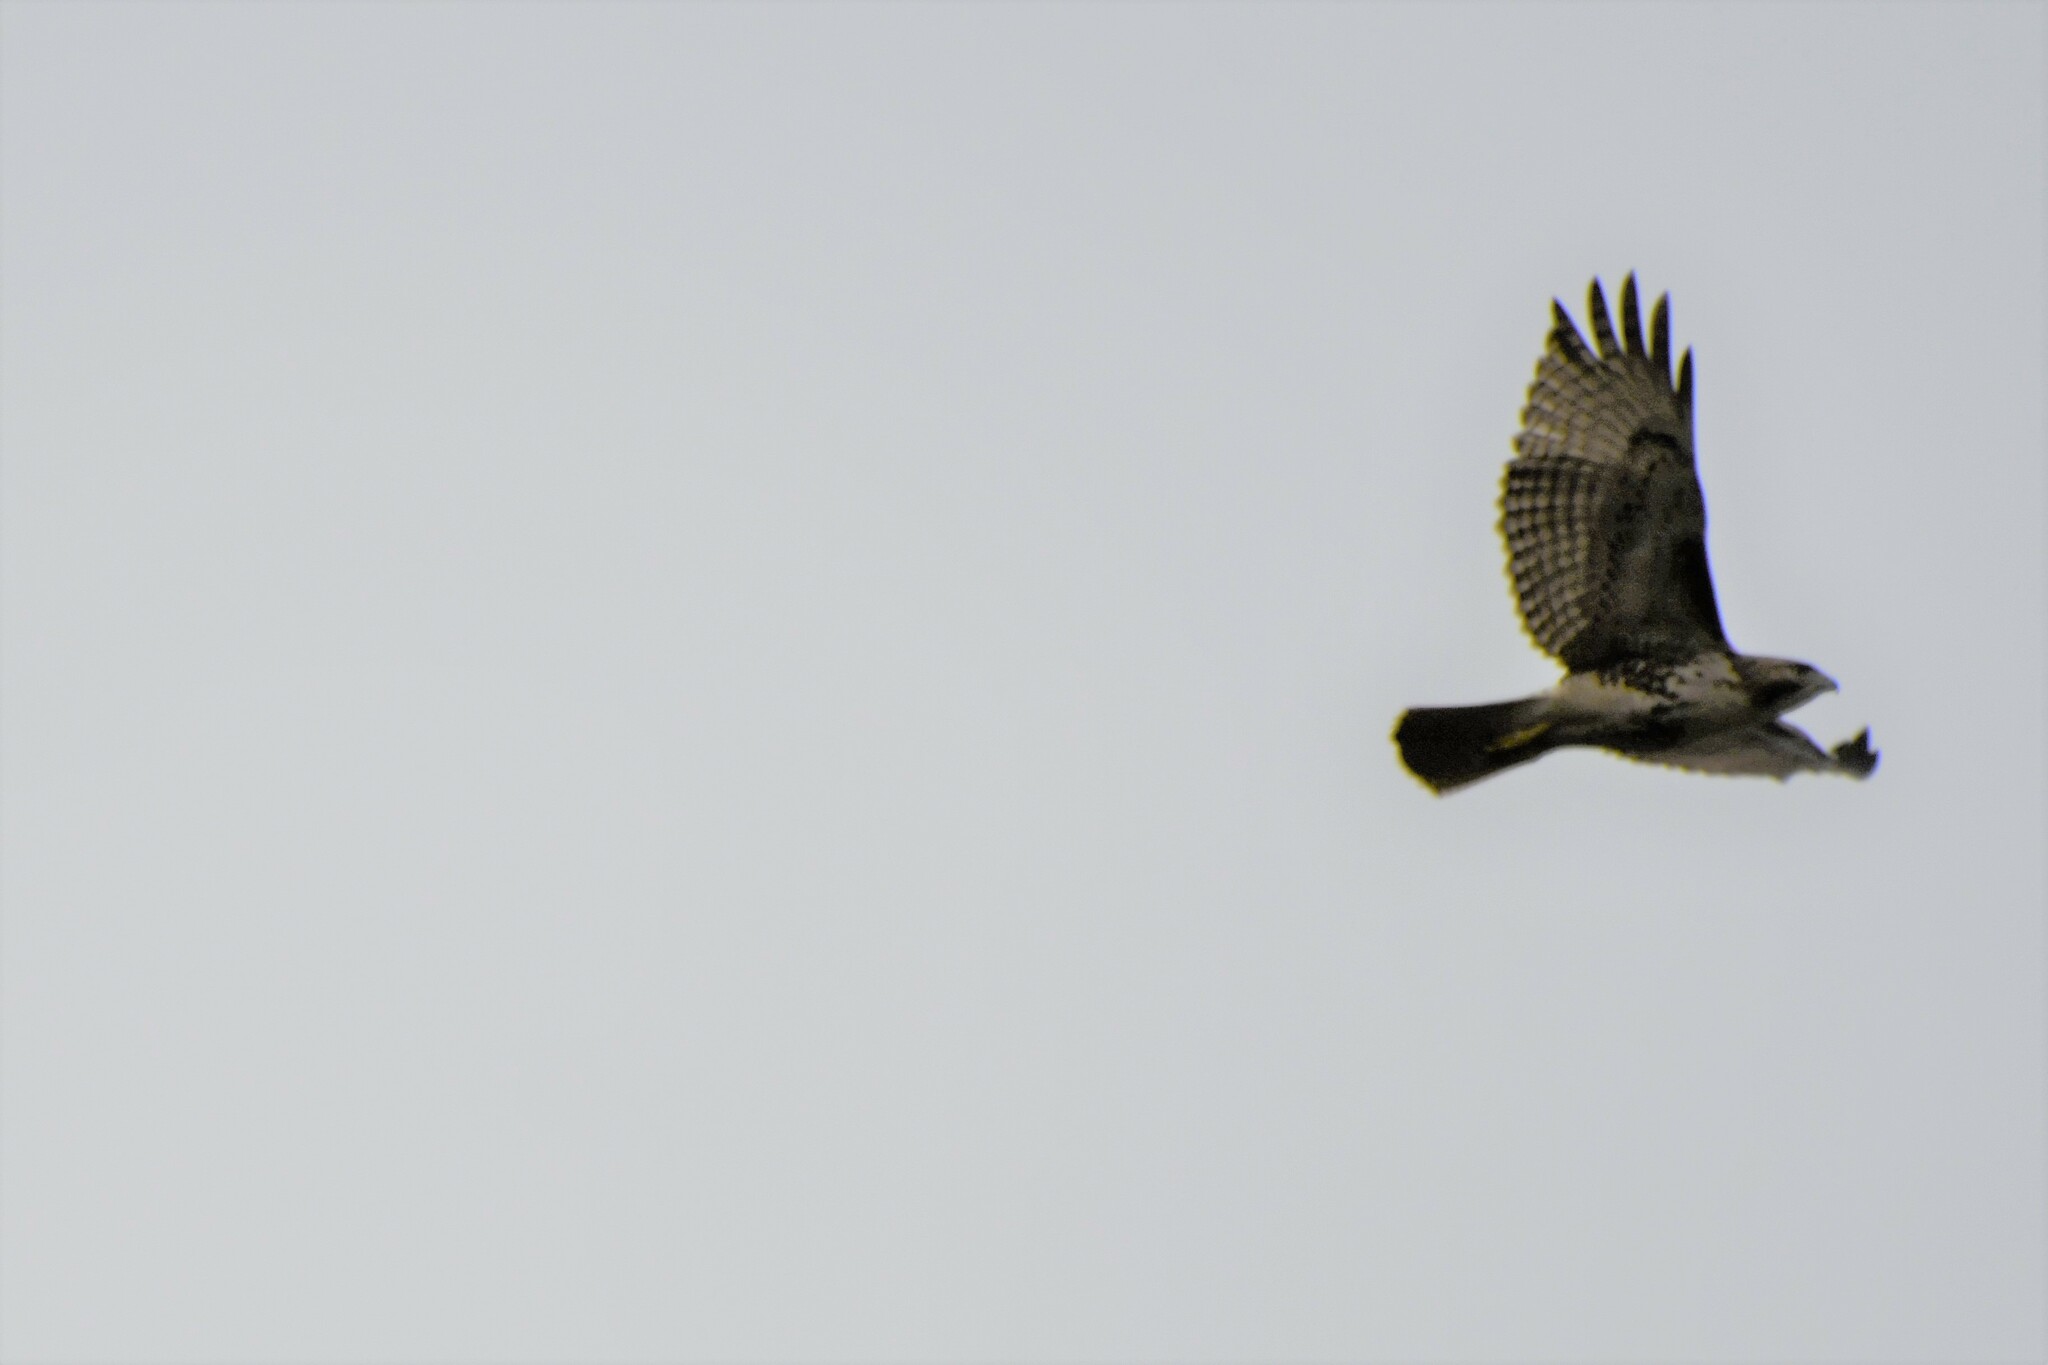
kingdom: Animalia
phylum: Chordata
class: Aves
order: Accipitriformes
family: Accipitridae
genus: Buteo
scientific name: Buteo jamaicensis
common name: Red-tailed hawk
